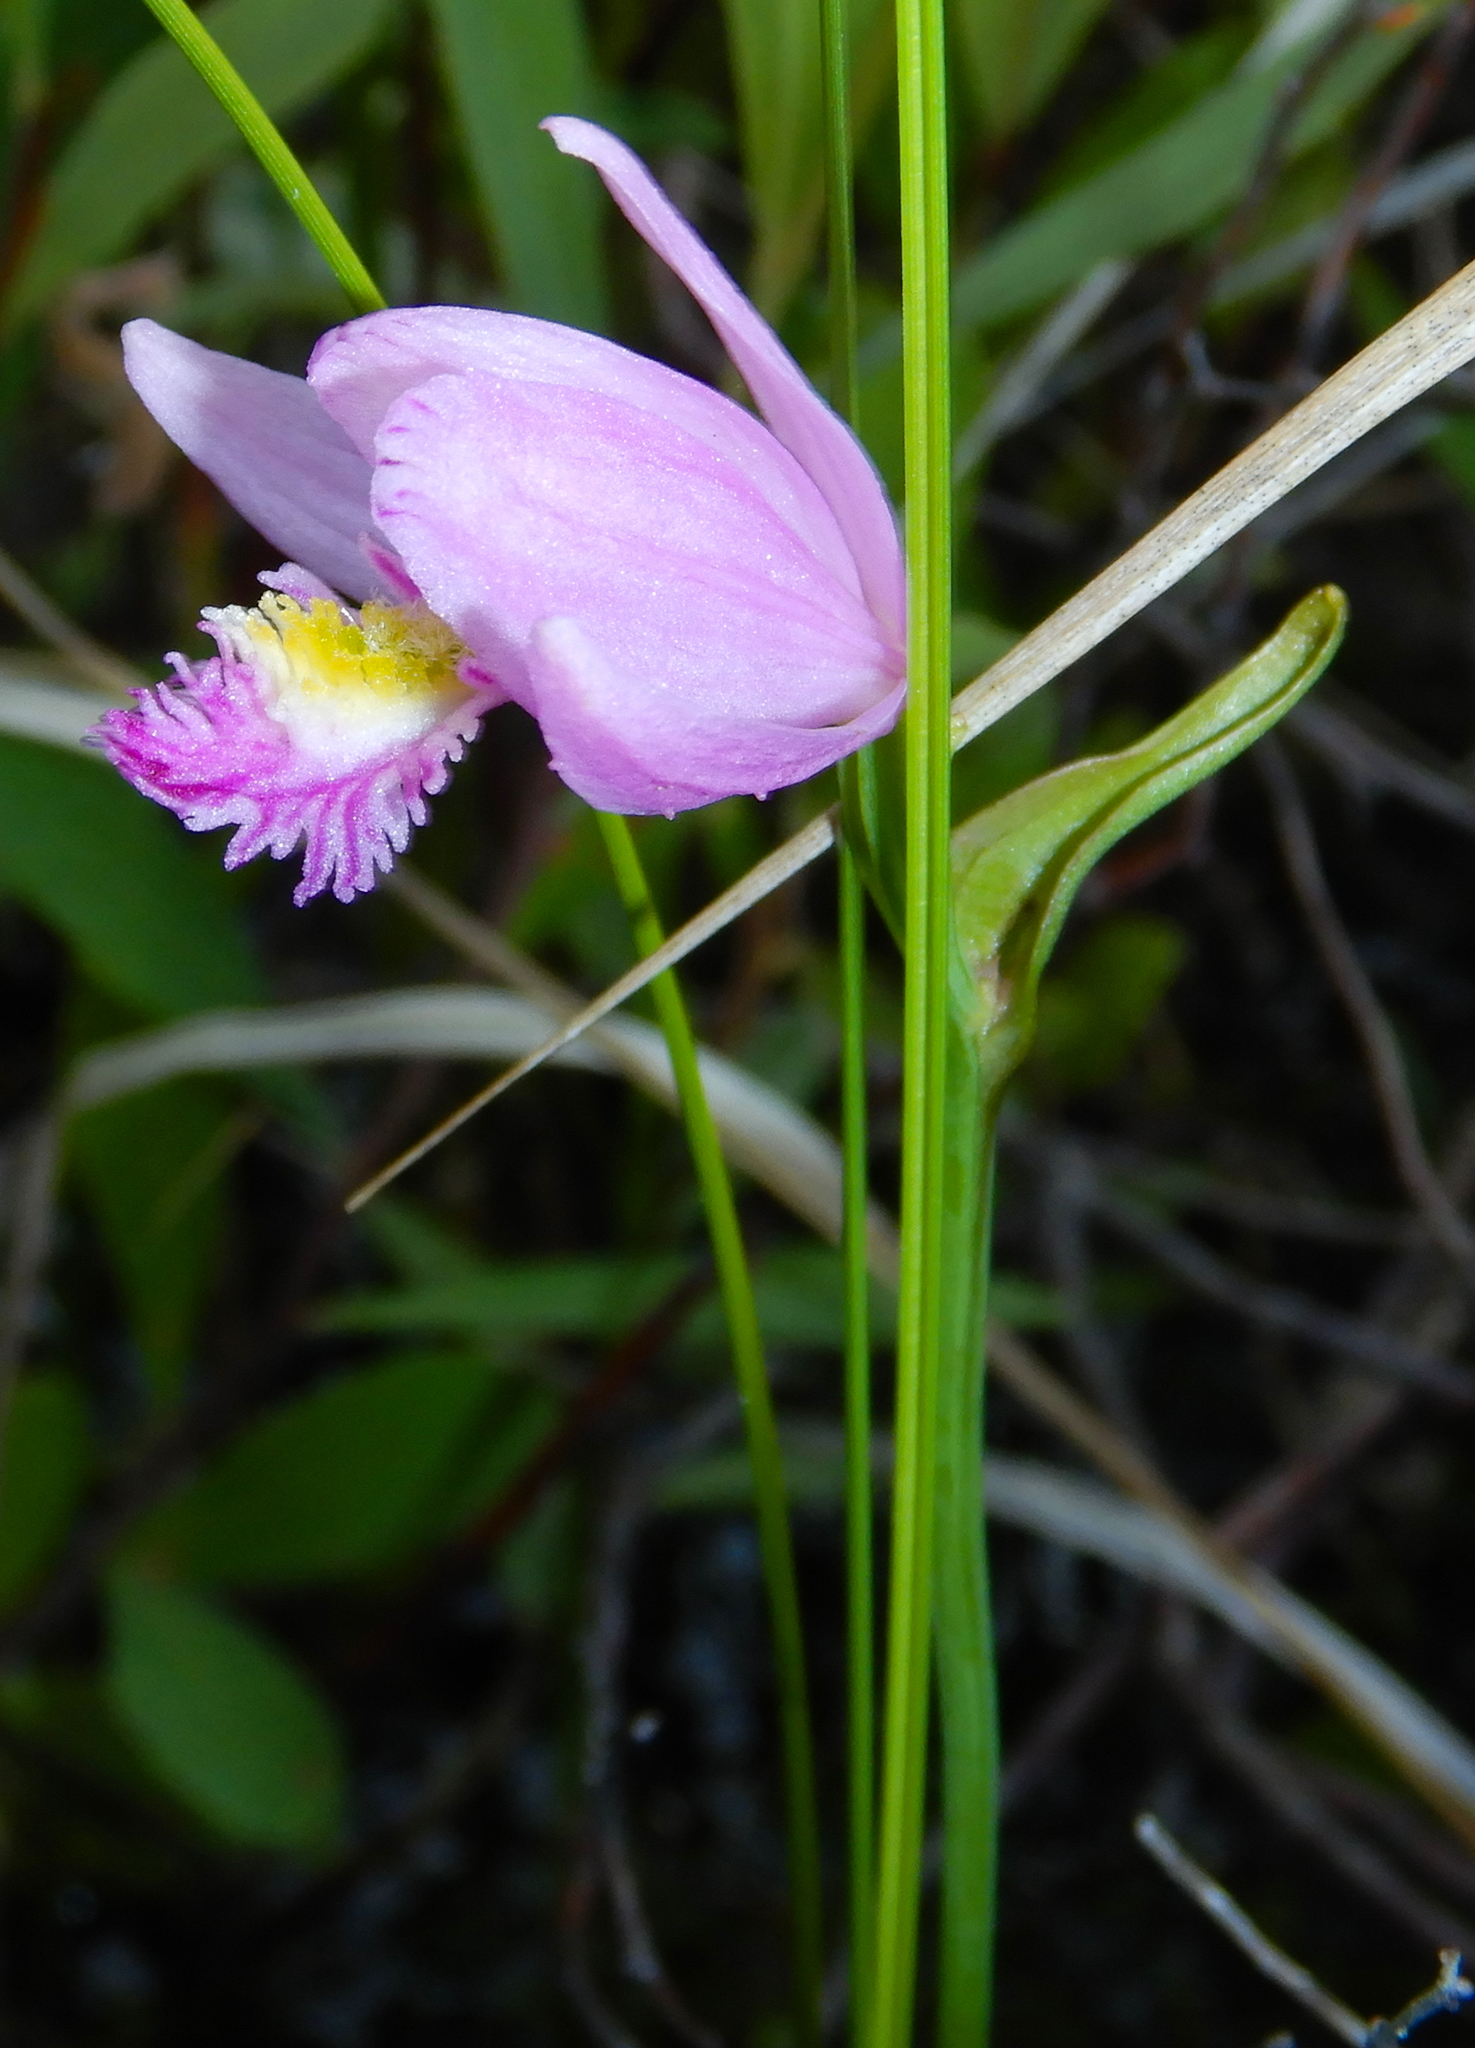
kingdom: Plantae
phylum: Tracheophyta
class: Liliopsida
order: Asparagales
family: Orchidaceae
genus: Pogonia
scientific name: Pogonia ophioglossoides
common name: Rose pogonia
